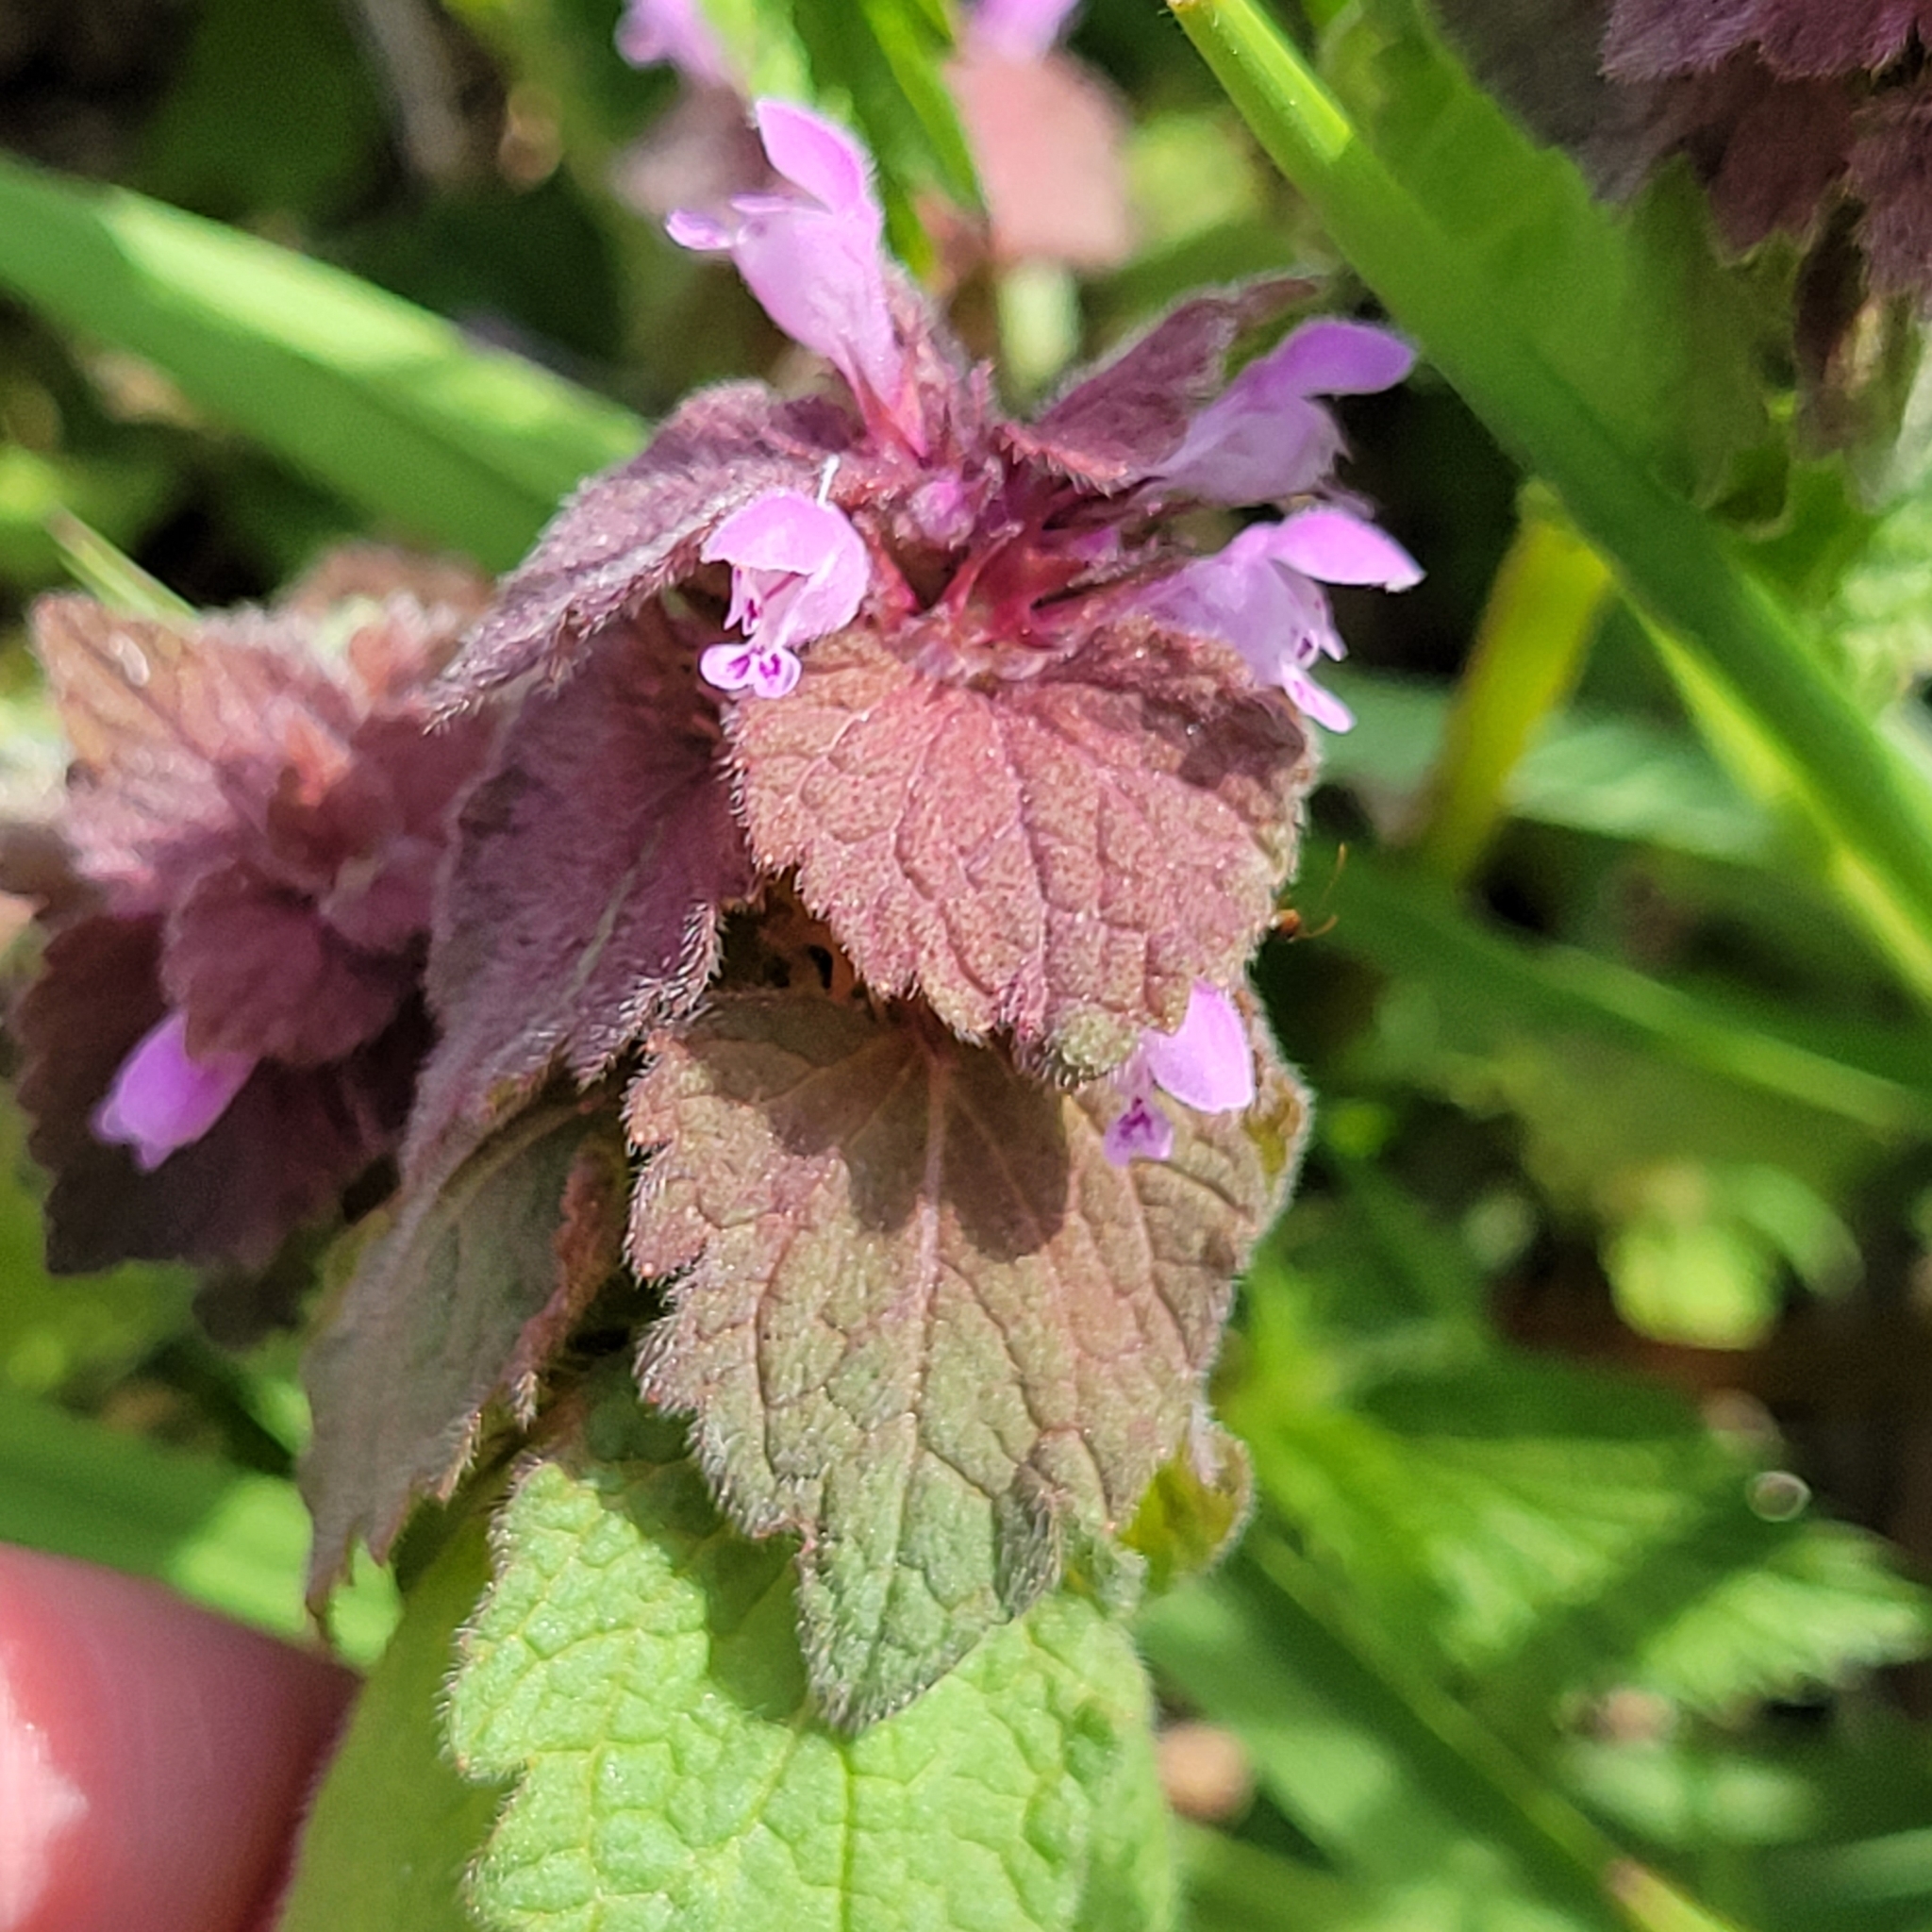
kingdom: Plantae
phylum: Tracheophyta
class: Magnoliopsida
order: Lamiales
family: Lamiaceae
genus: Lamium
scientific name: Lamium purpureum
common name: Red dead-nettle
